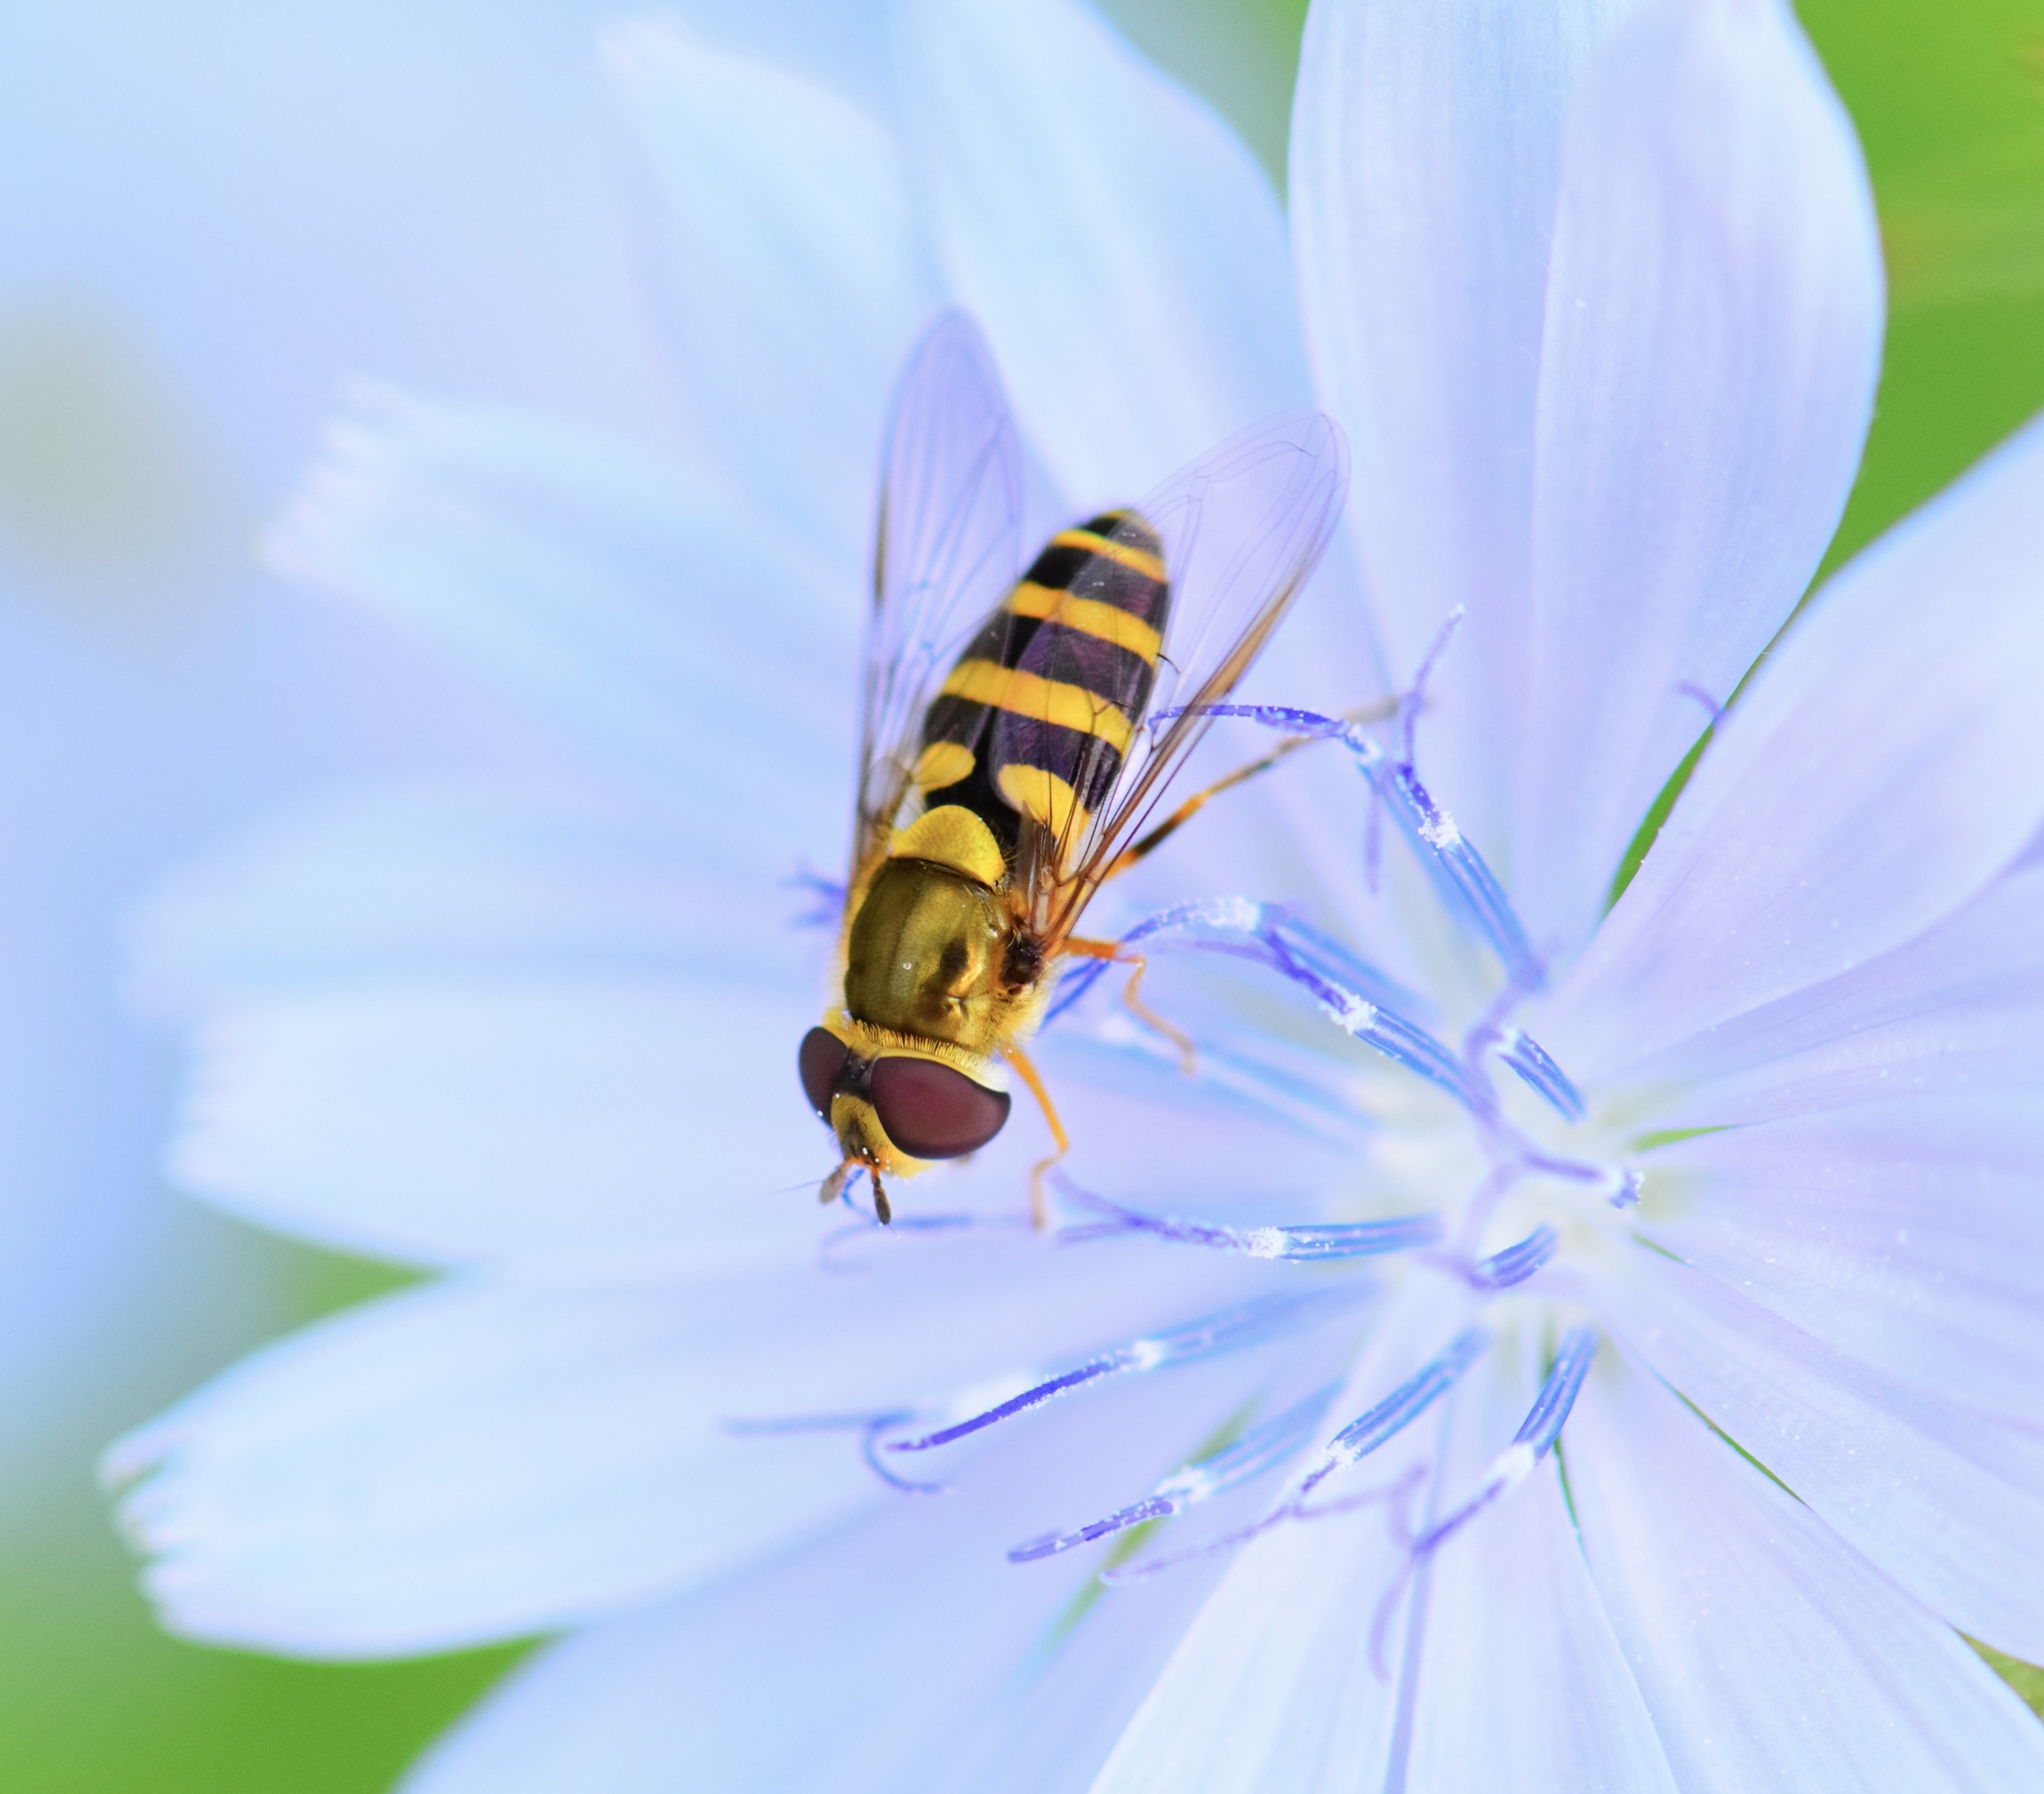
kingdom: Animalia
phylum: Arthropoda
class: Insecta
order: Diptera
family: Syrphidae
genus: Syrphus
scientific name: Syrphus rectus
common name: Yellow-legged flower fly
